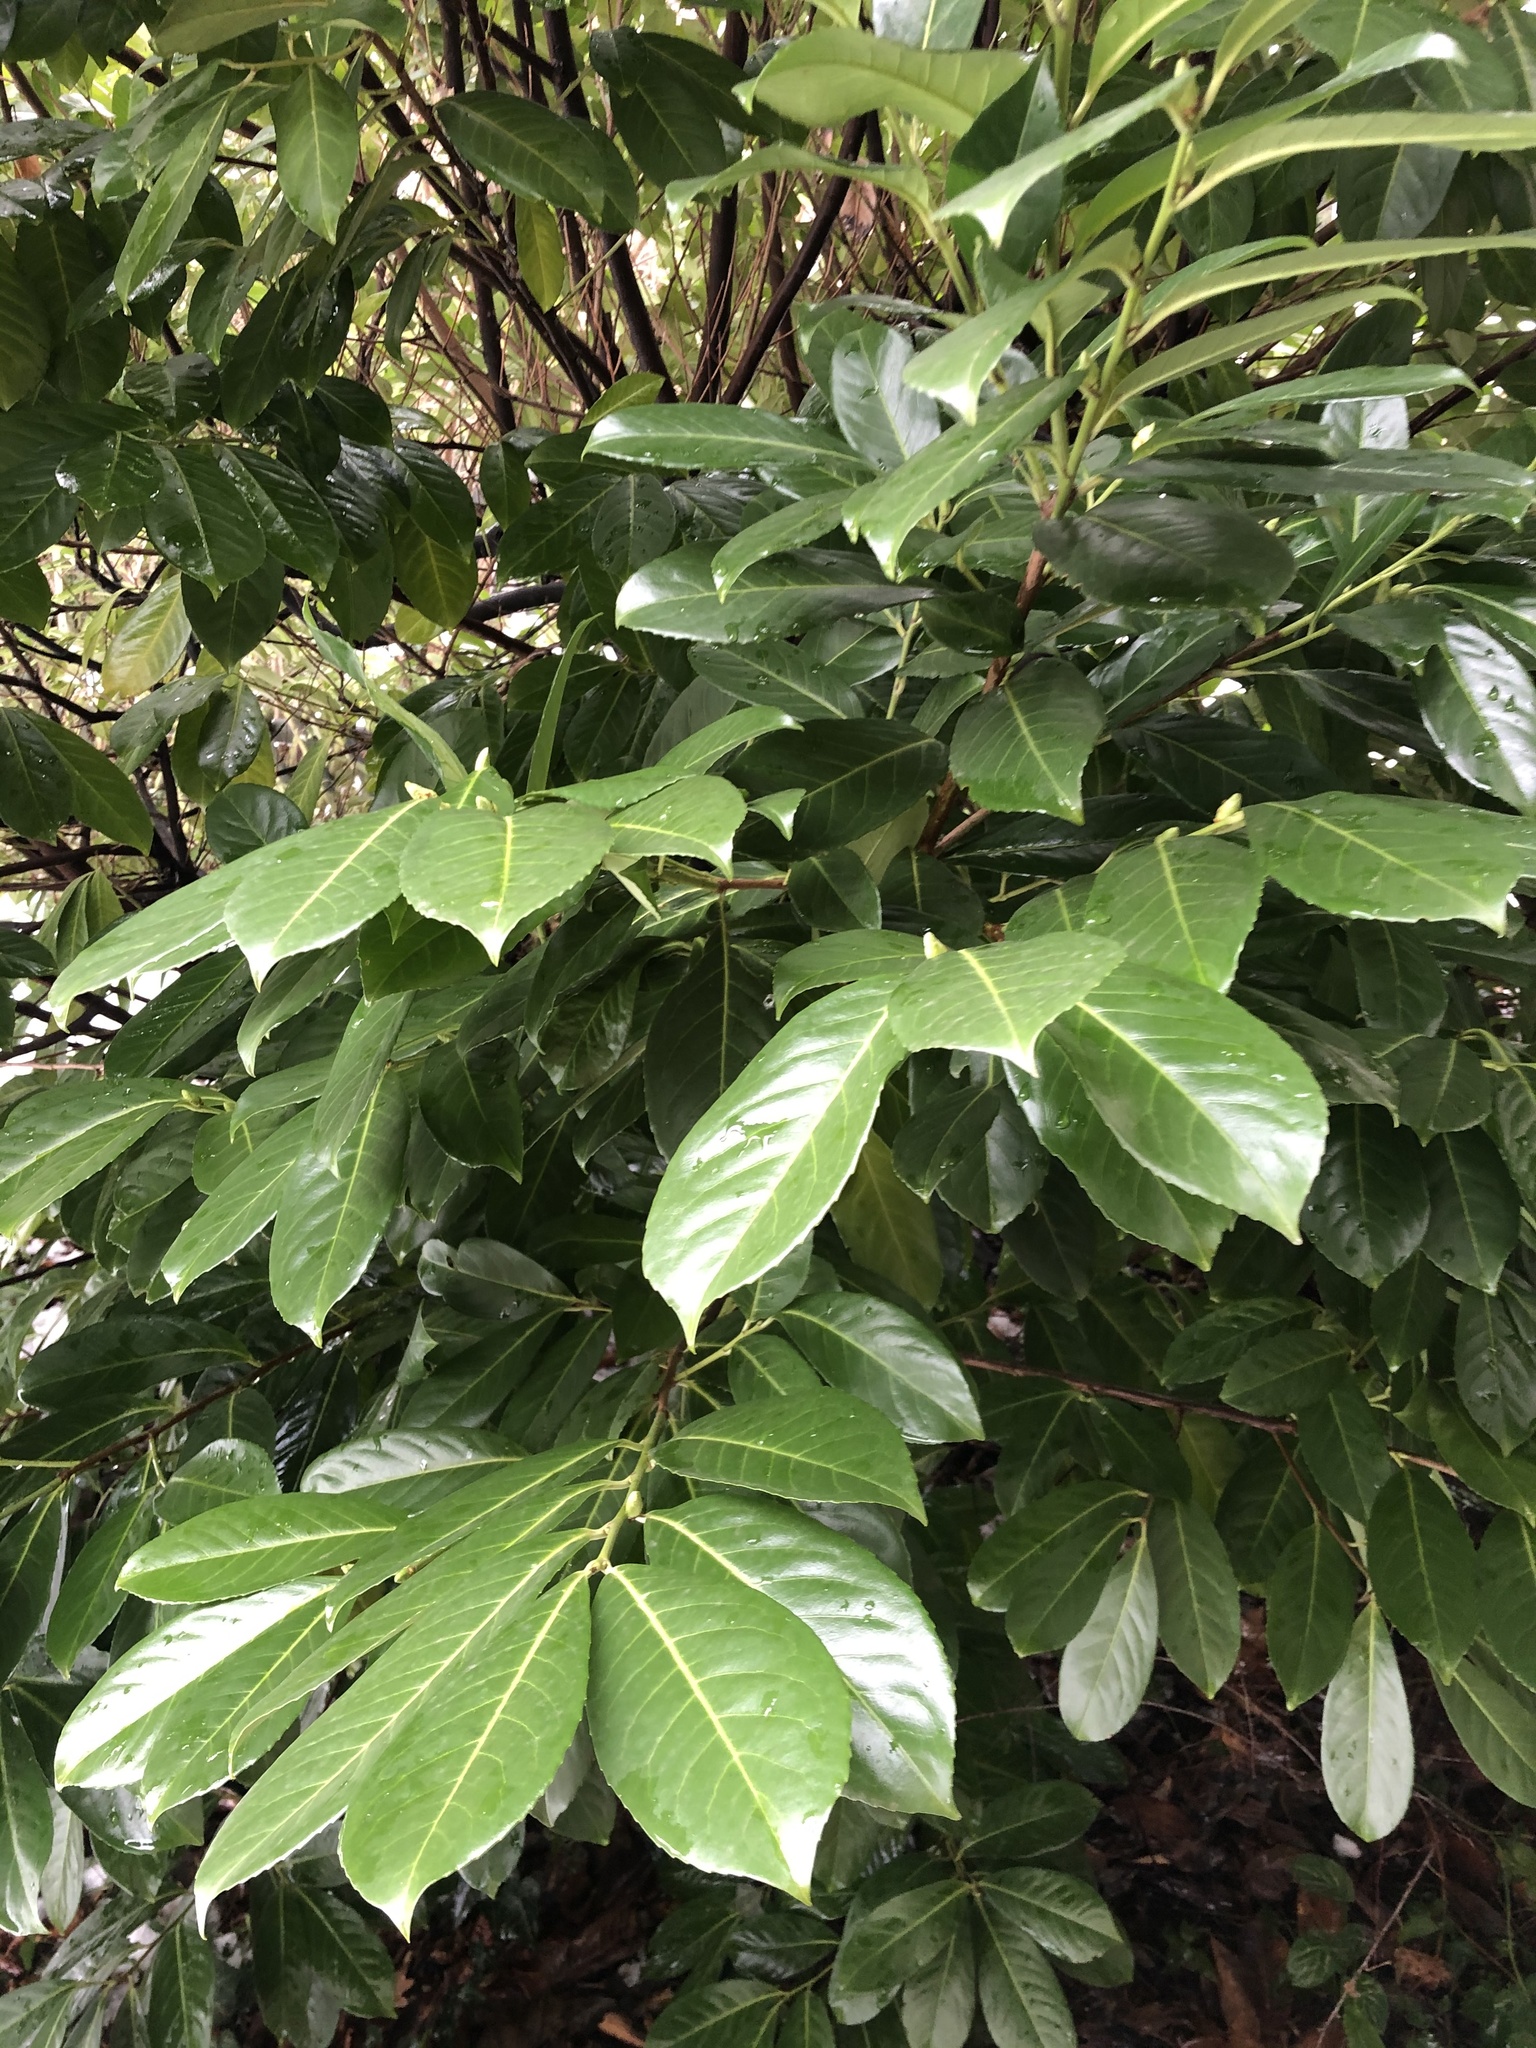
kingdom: Plantae
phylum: Tracheophyta
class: Magnoliopsida
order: Rosales
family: Rosaceae
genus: Prunus
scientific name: Prunus laurocerasus
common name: Cherry laurel
